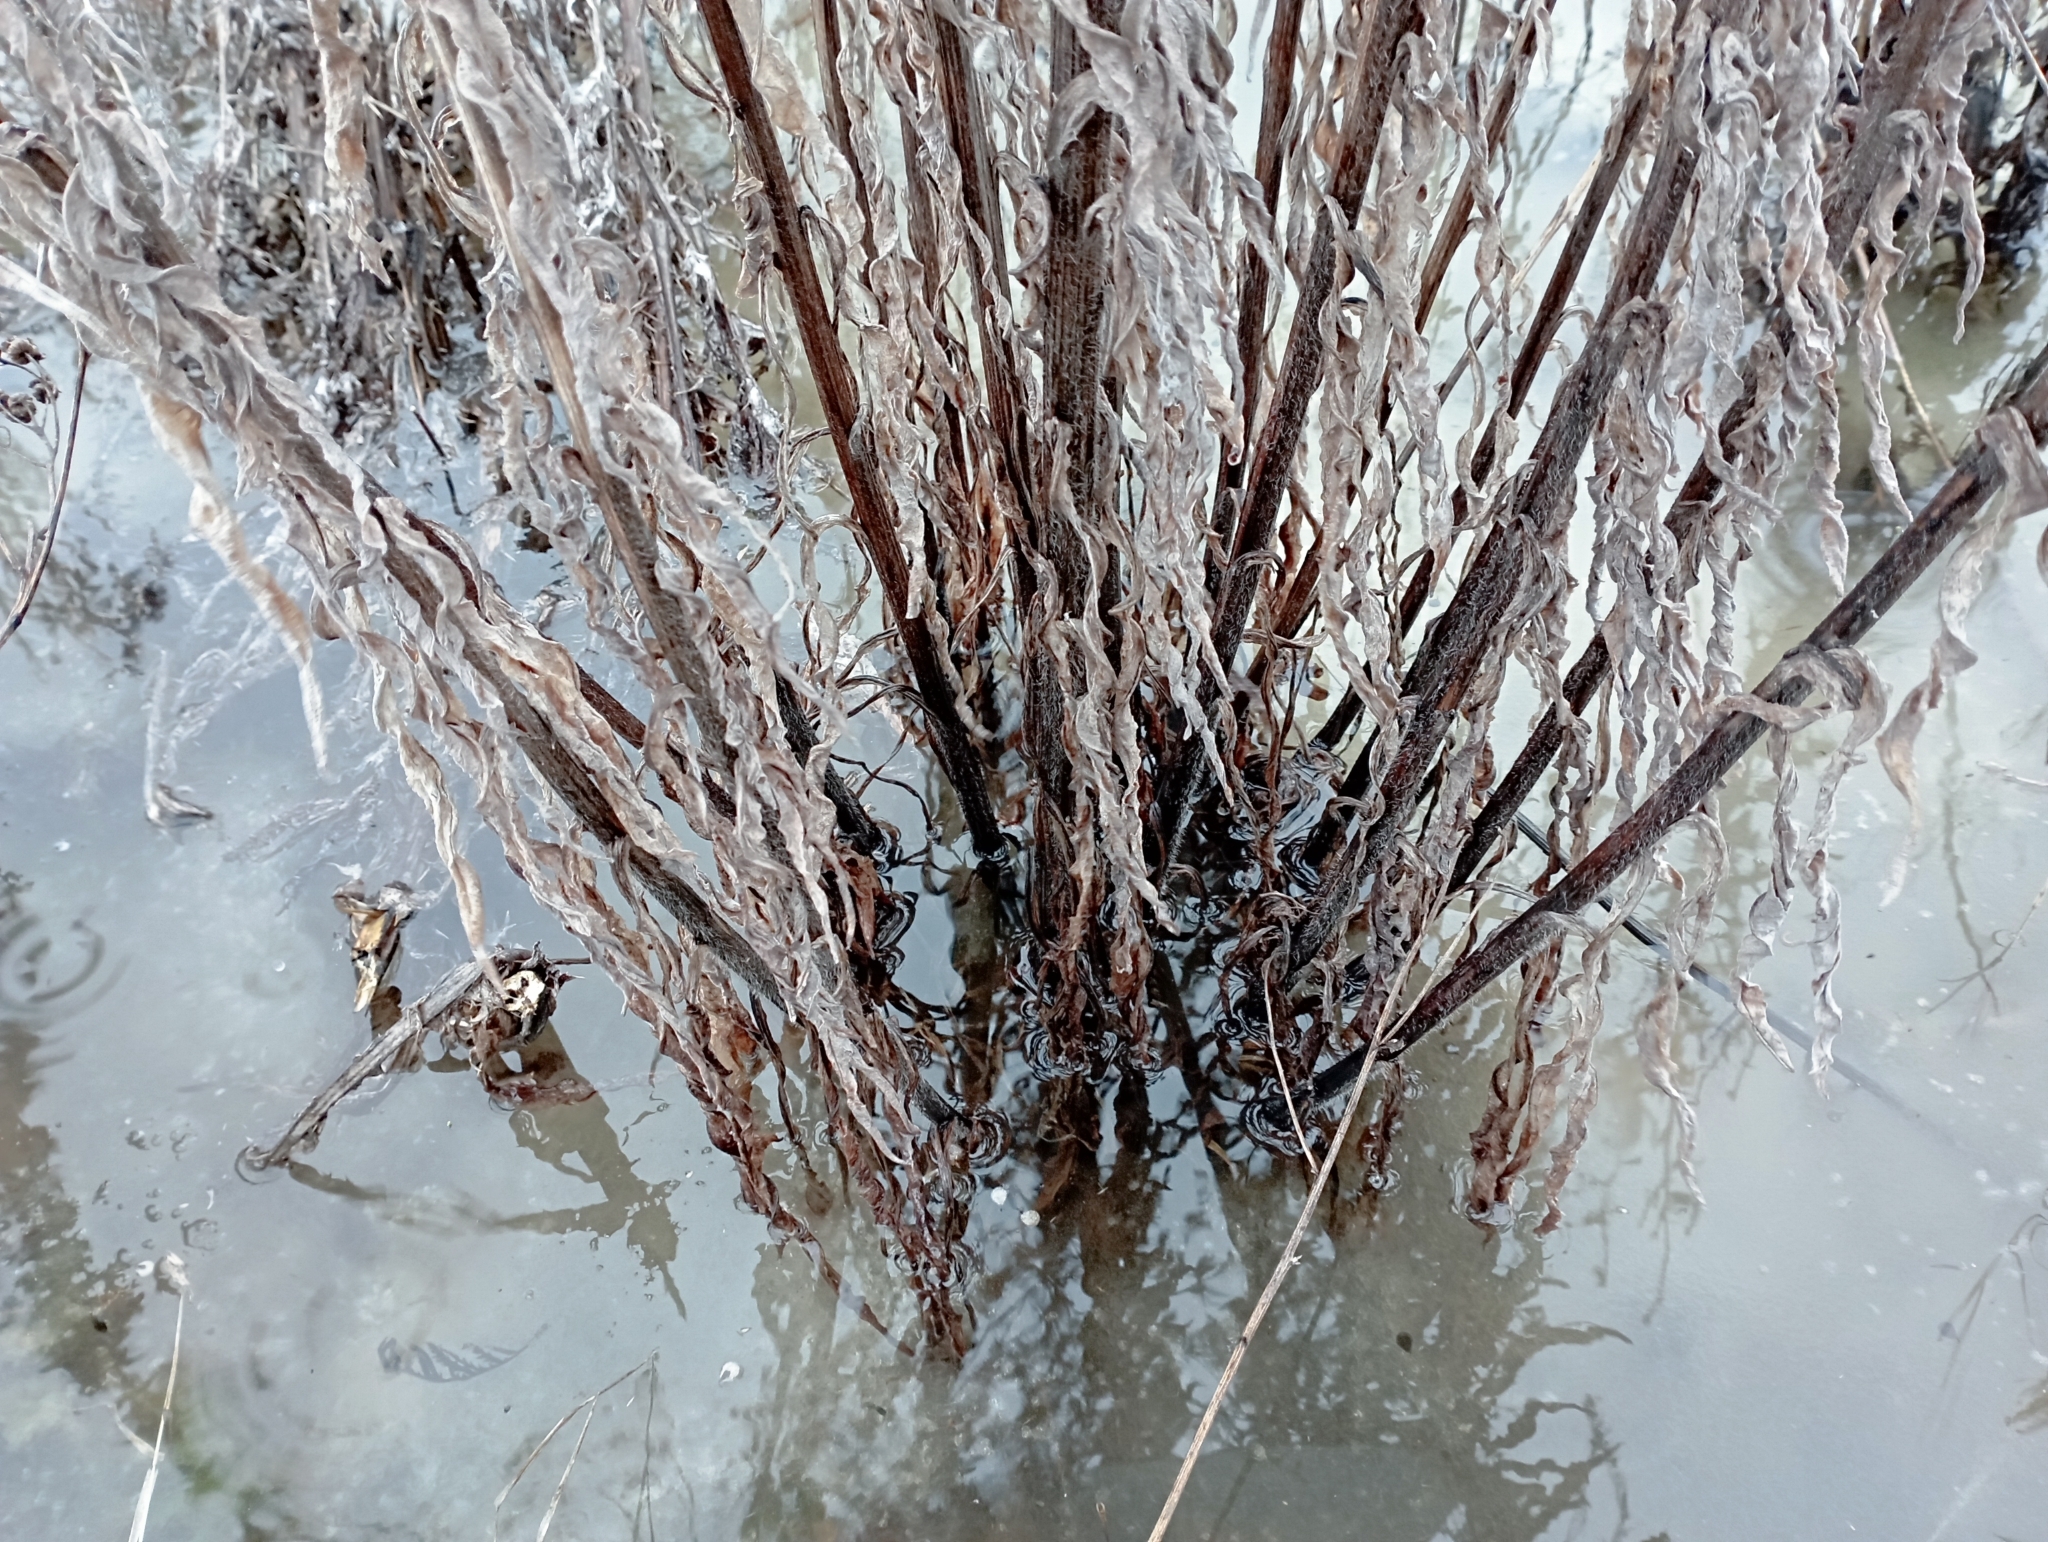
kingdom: Plantae
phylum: Tracheophyta
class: Magnoliopsida
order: Boraginales
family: Boraginaceae
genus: Cynoglossum
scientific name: Cynoglossum officinale
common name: Hound's-tongue
